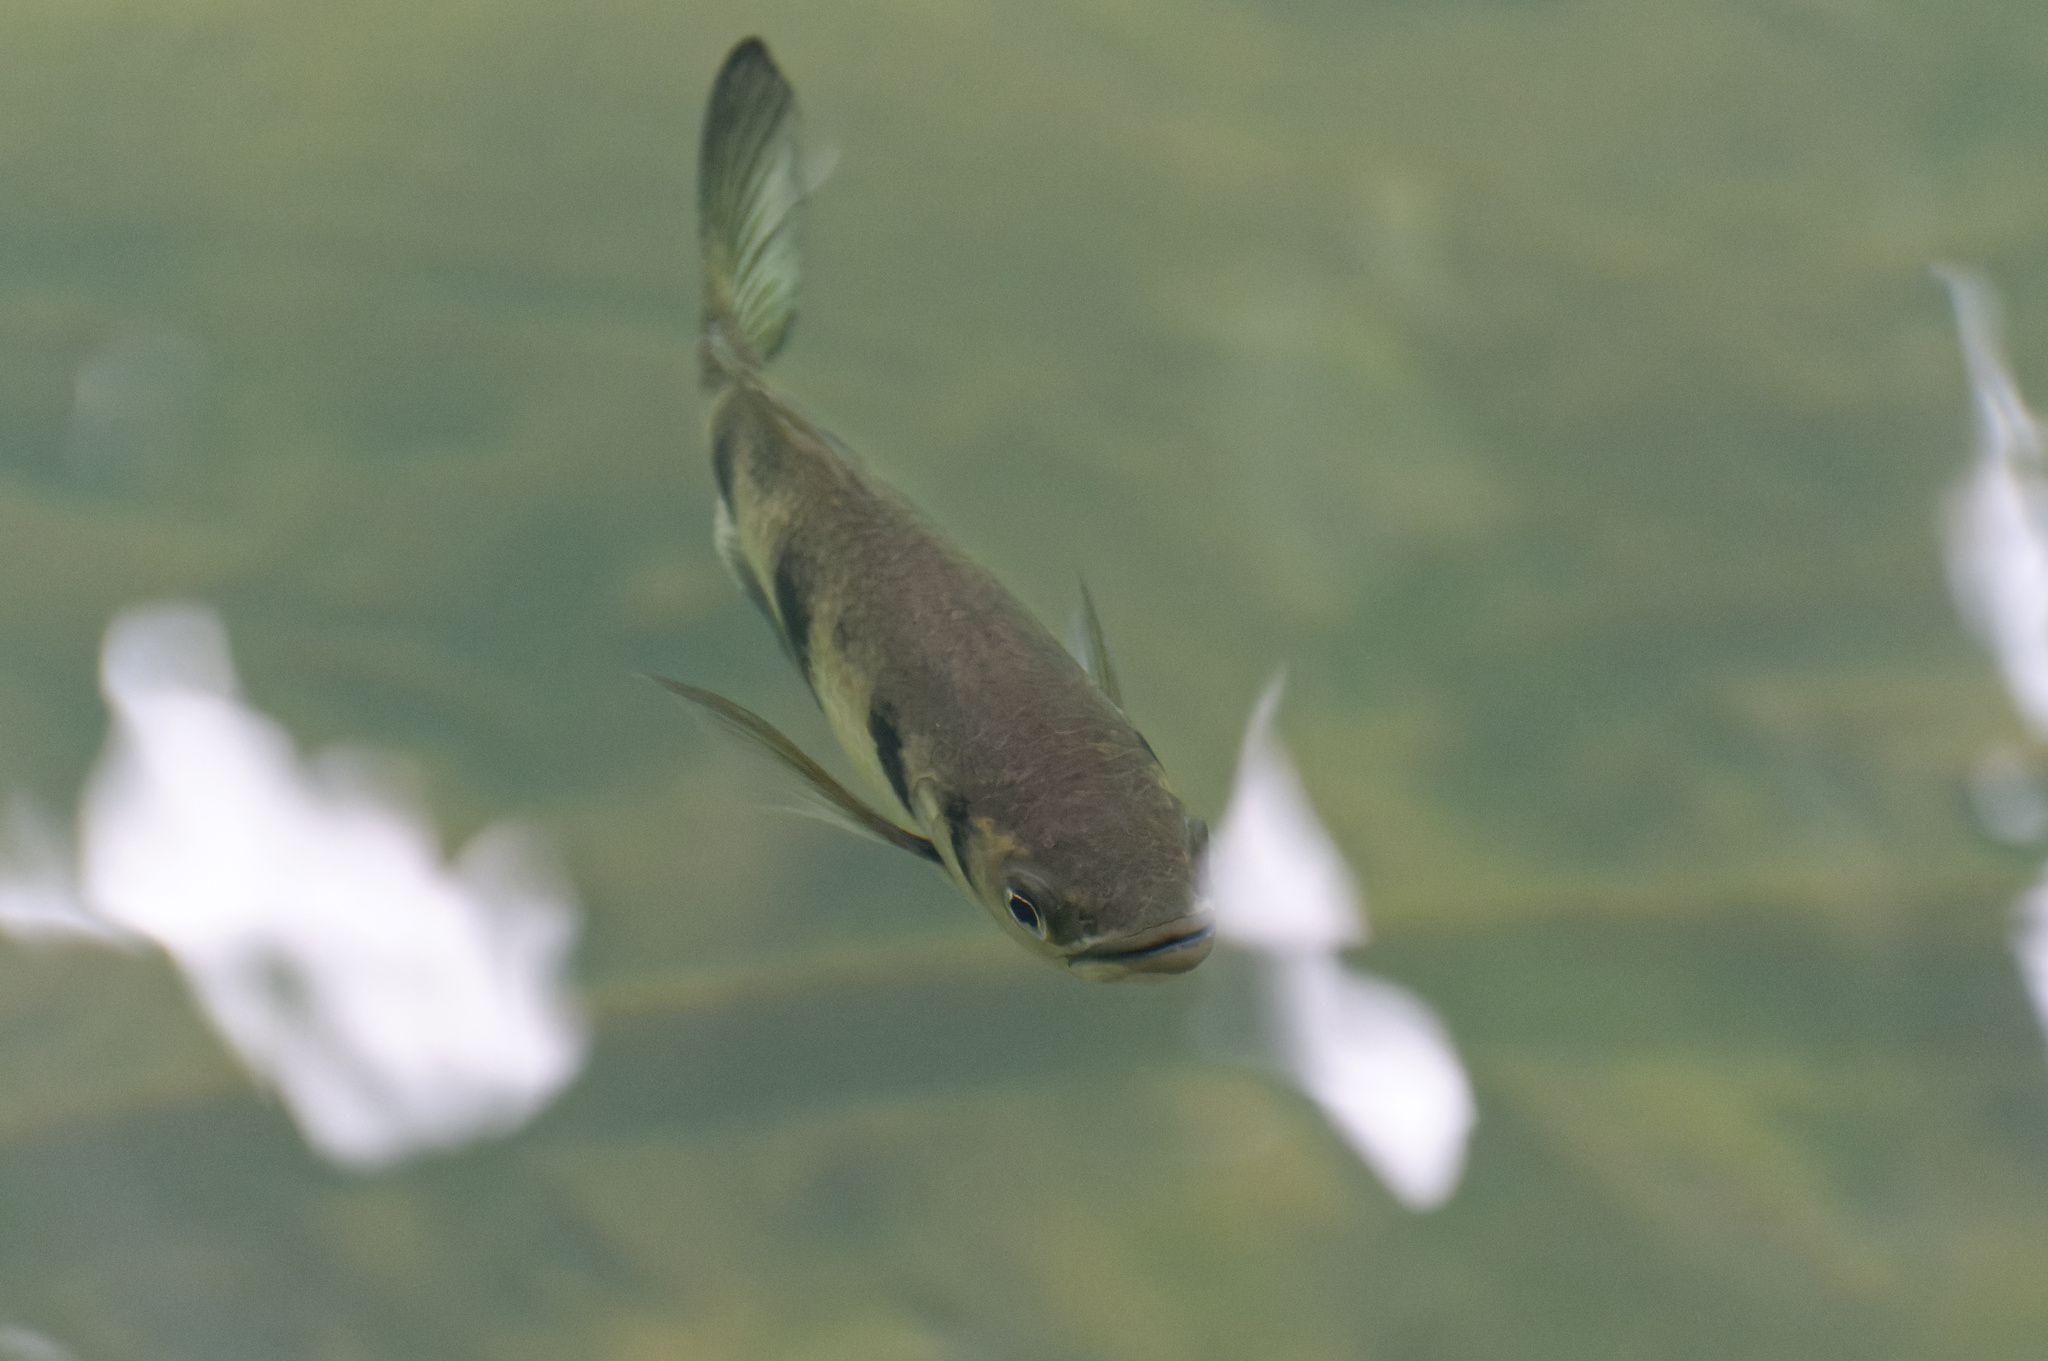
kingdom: Animalia
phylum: Chordata
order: Perciformes
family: Toxotidae
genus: Toxotes
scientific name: Toxotes chatareus
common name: Spotted archerfish
